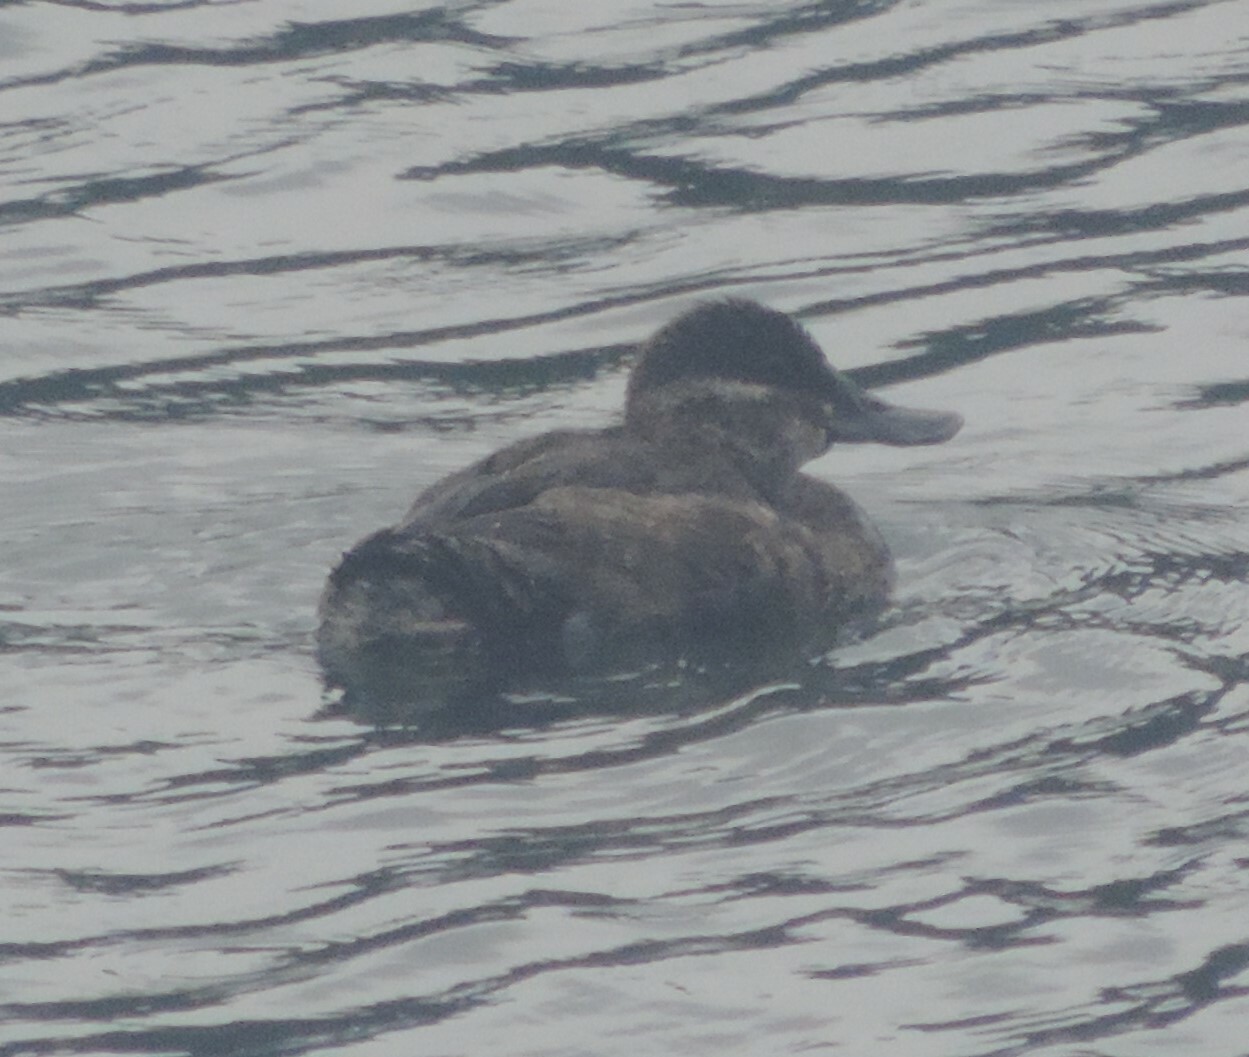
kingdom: Animalia
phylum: Chordata
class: Aves
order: Anseriformes
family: Anatidae
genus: Oxyura
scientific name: Oxyura jamaicensis
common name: Ruddy duck
